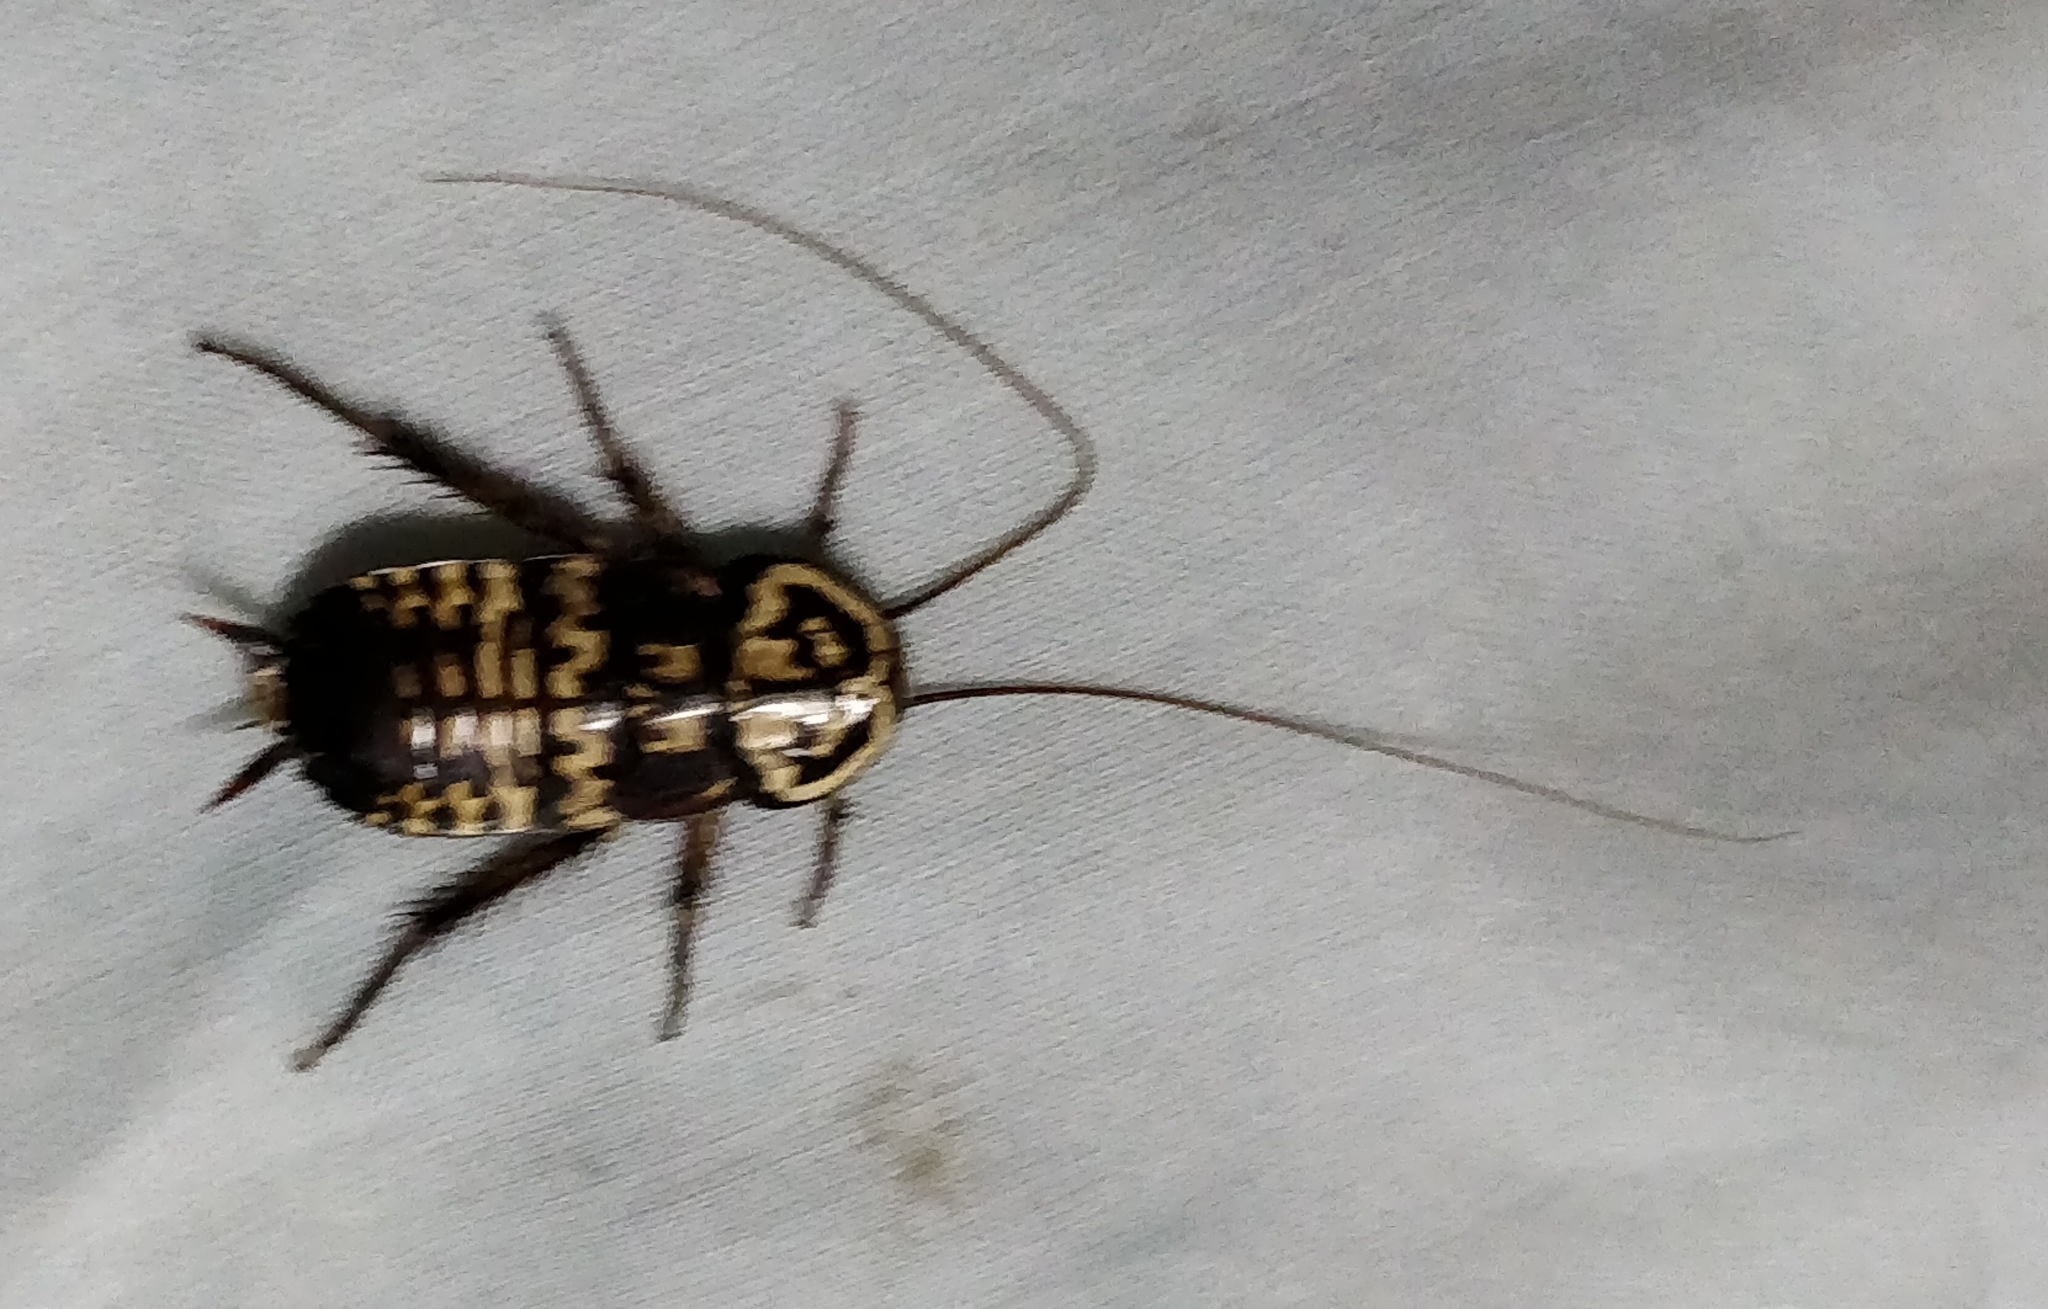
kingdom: Animalia
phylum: Arthropoda
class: Insecta
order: Blattodea
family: Blattidae
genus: Neostylopyga
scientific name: Neostylopyga rhombifolia
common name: Harlequin cockroach
